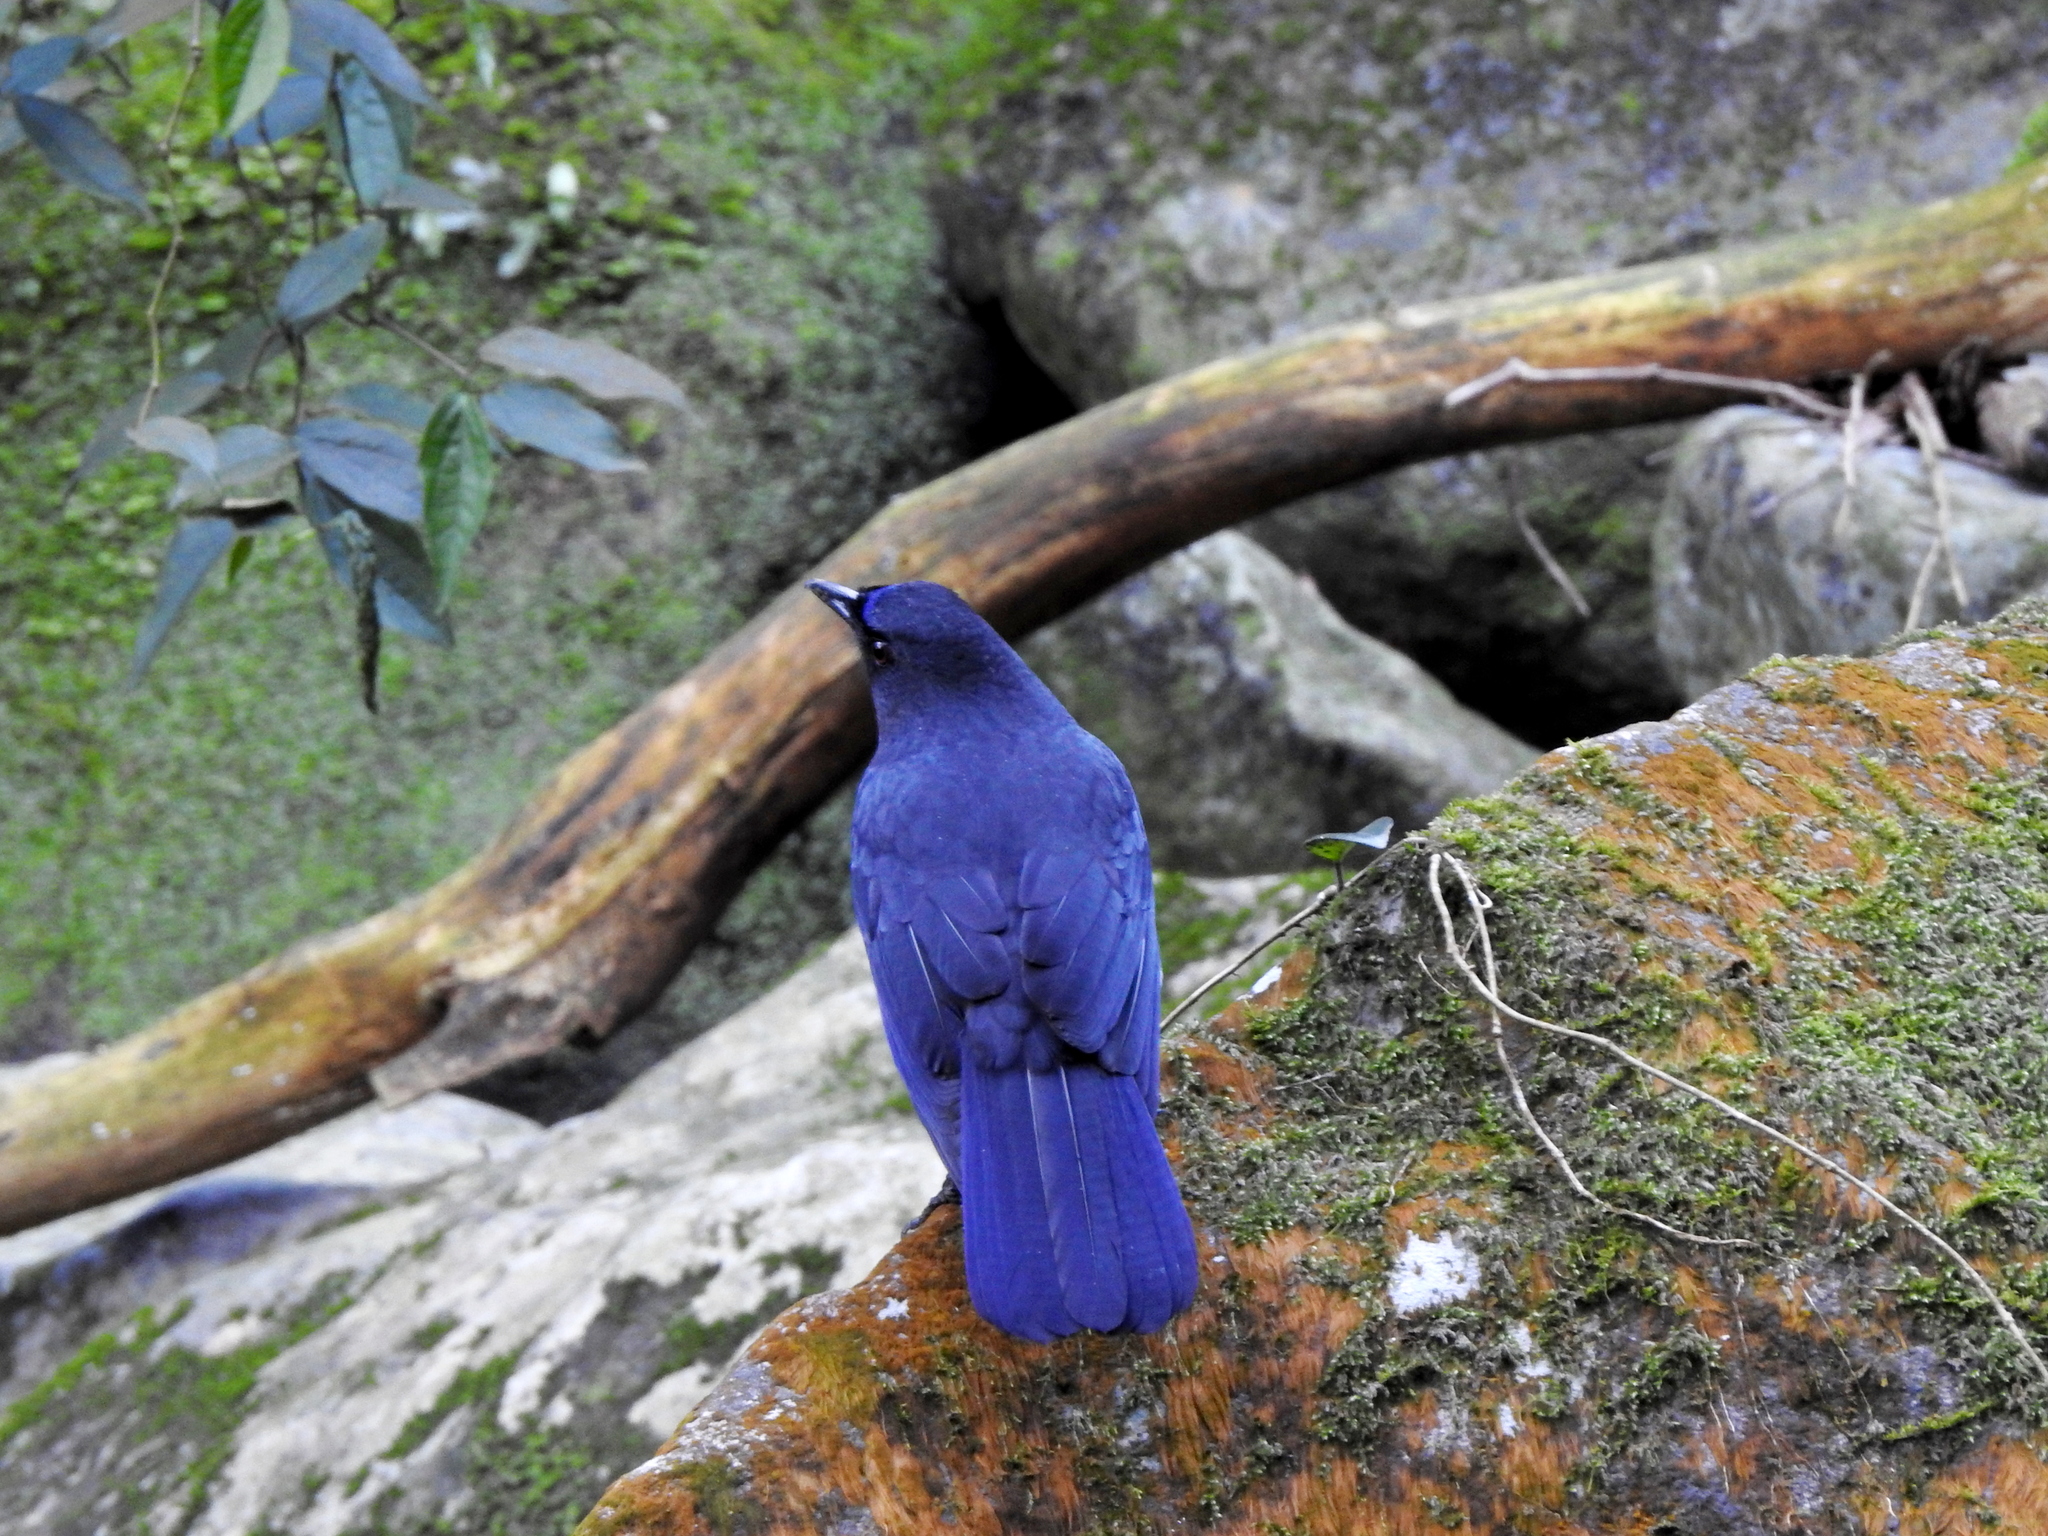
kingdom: Animalia
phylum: Chordata
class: Aves
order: Passeriformes
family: Muscicapidae
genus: Myophonus
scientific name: Myophonus insularis
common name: Taiwan whistling-thrush
